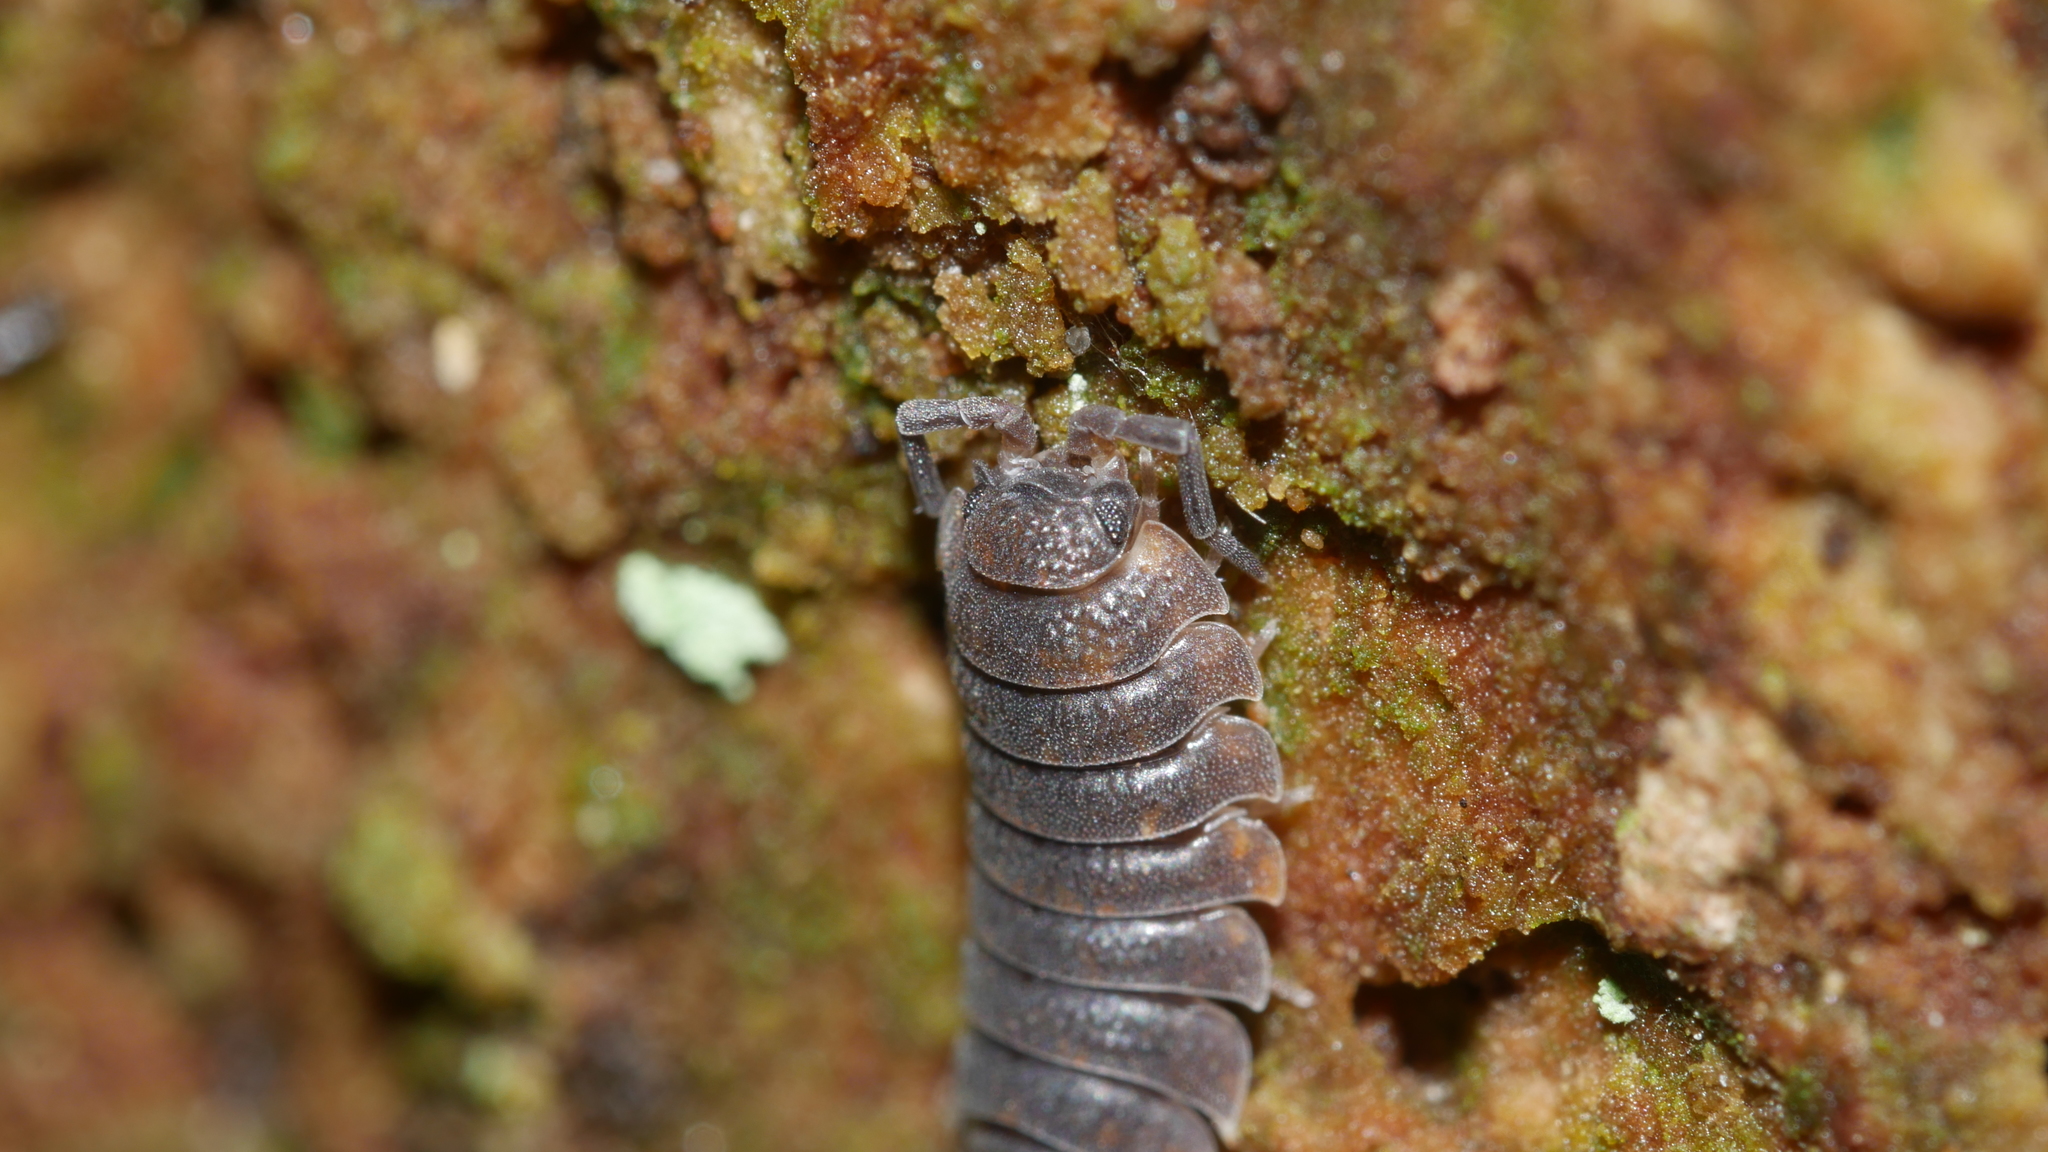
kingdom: Animalia
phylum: Arthropoda
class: Malacostraca
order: Isopoda
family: Porcellionidae
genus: Porcellio
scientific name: Porcellio scaber
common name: Common rough woodlouse
